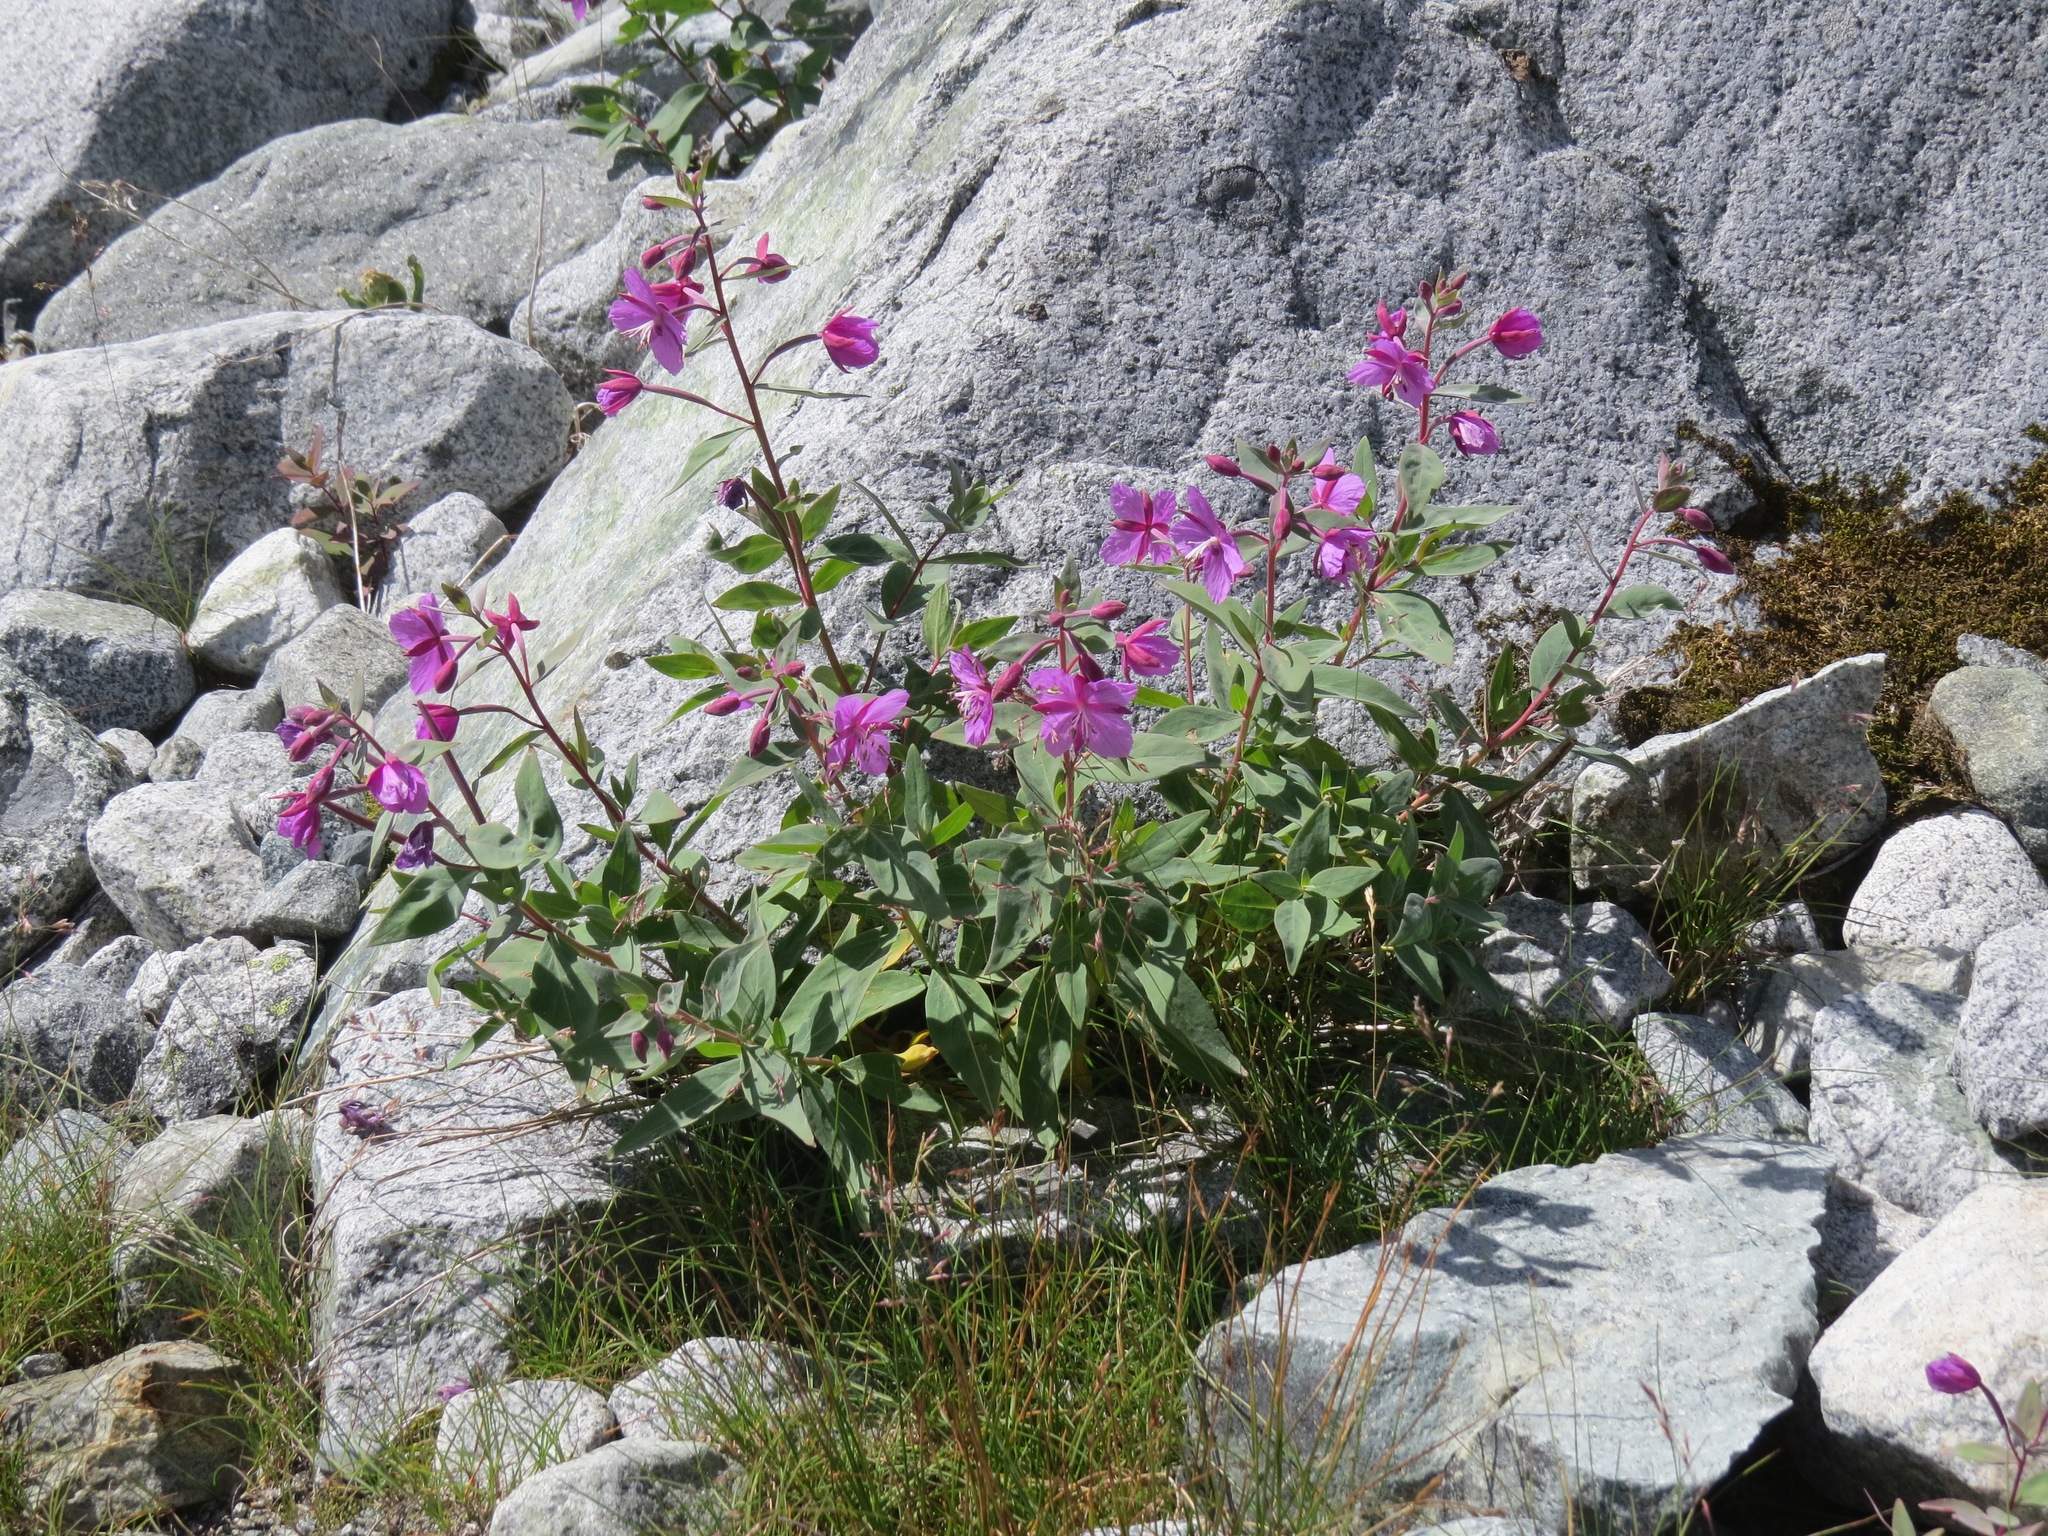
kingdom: Plantae
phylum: Tracheophyta
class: Magnoliopsida
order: Myrtales
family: Onagraceae
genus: Chamaenerion
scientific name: Chamaenerion latifolium
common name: Dwarf fireweed
